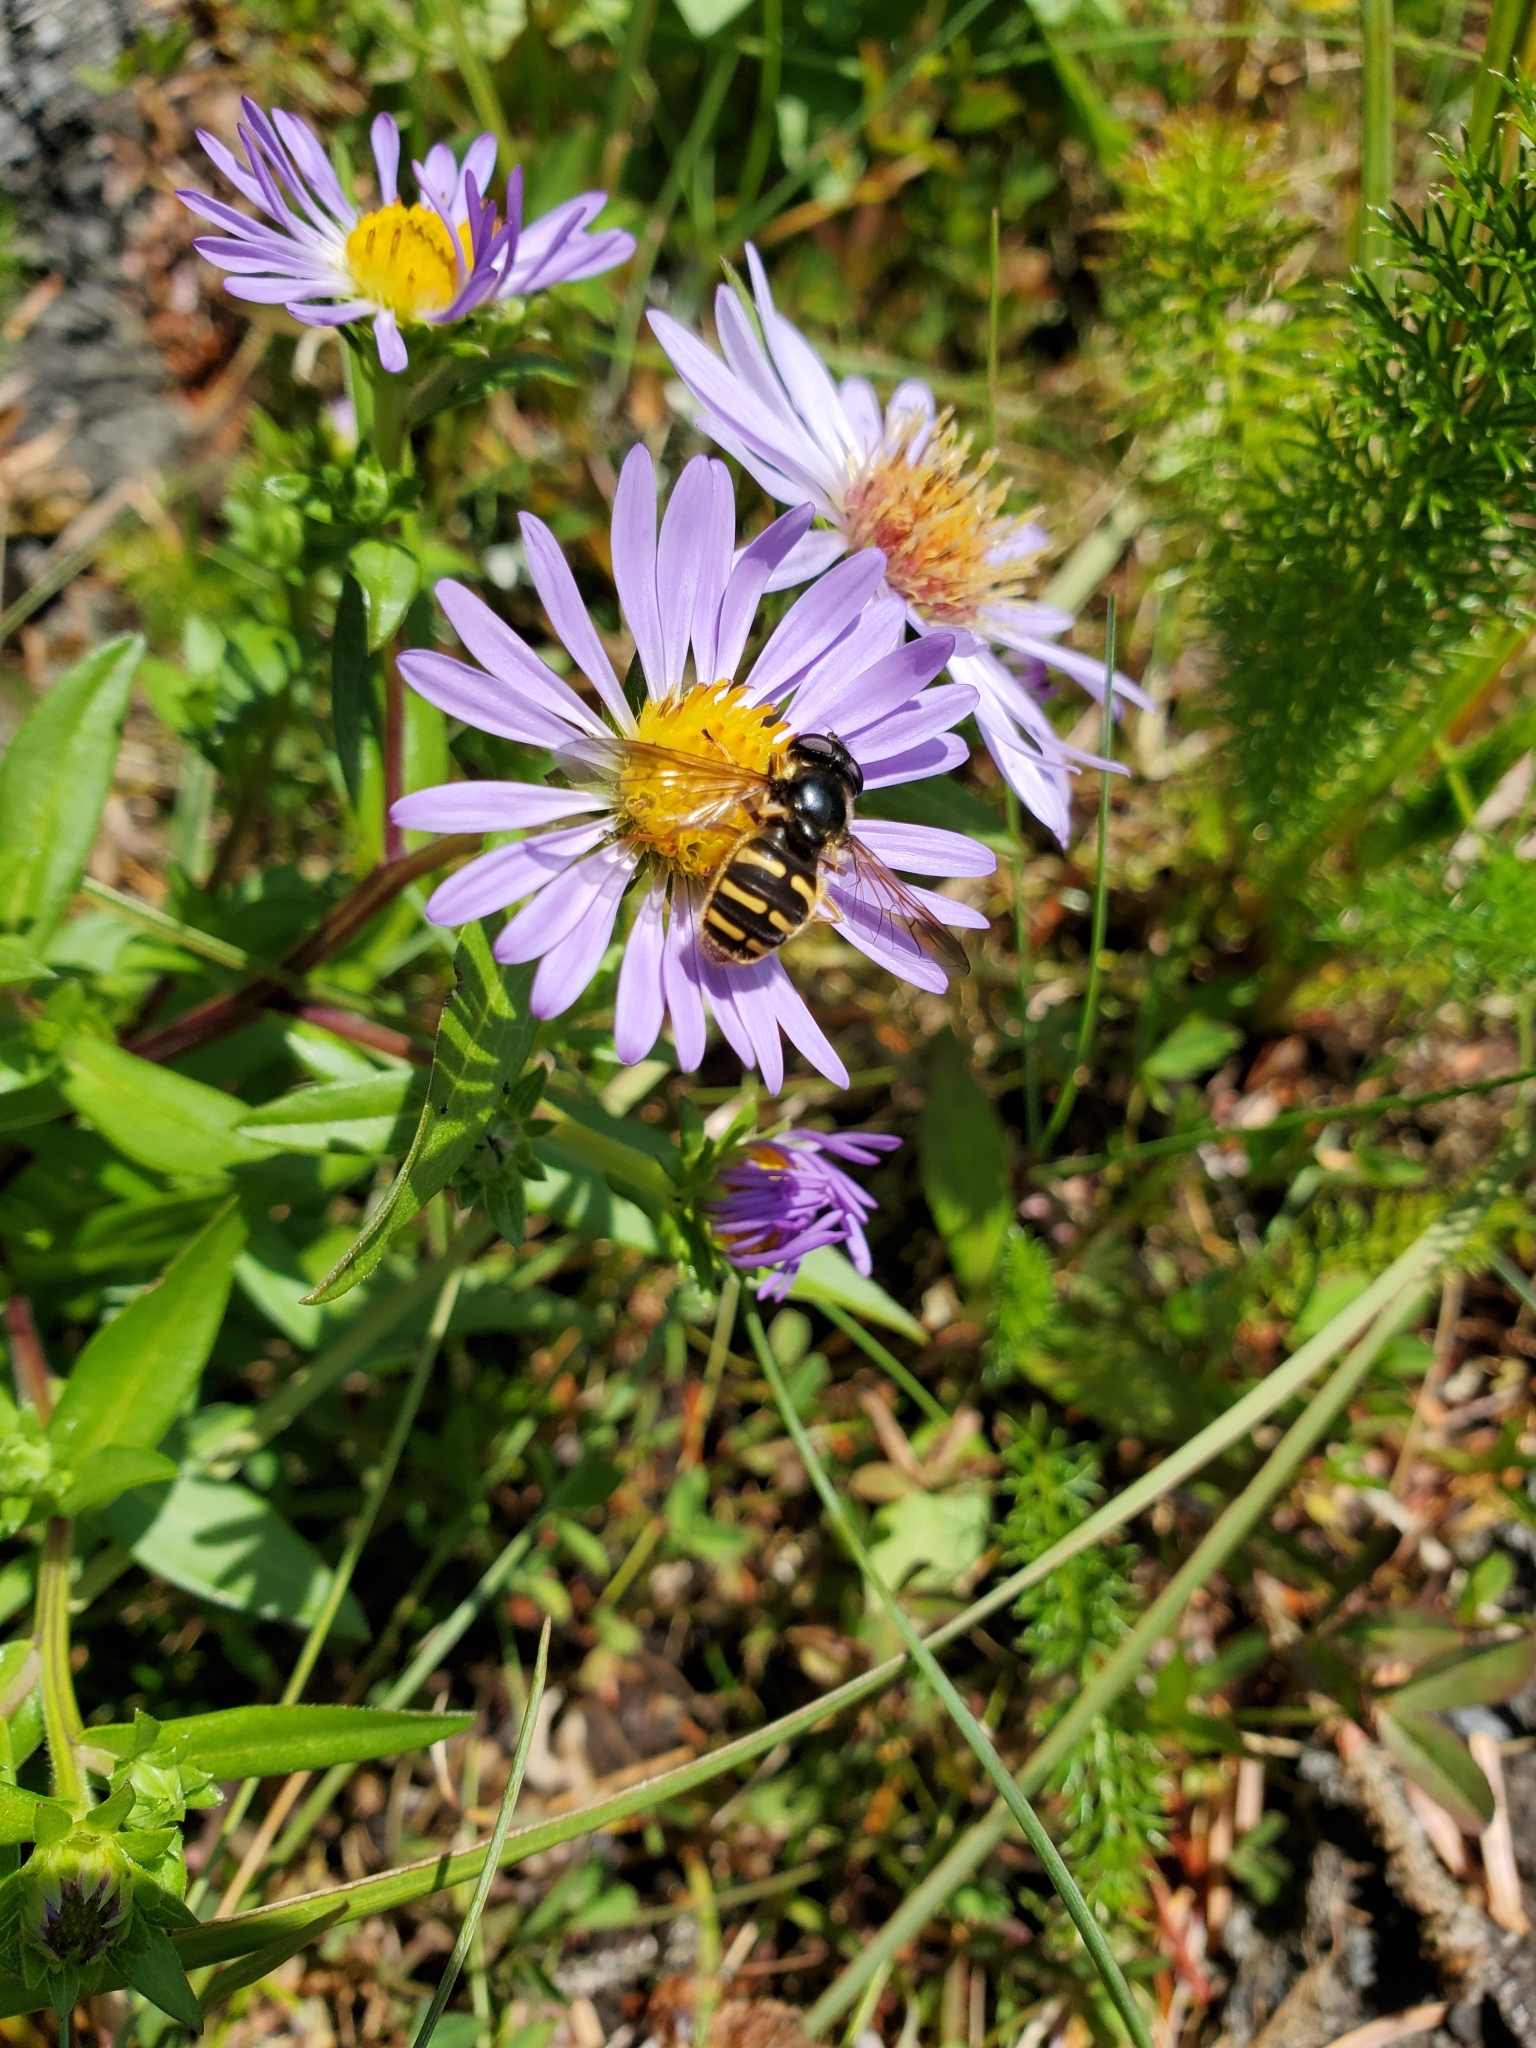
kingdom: Animalia
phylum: Arthropoda
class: Insecta
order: Diptera
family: Syrphidae
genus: Sericomyia
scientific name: Sericomyia chalcopyga
